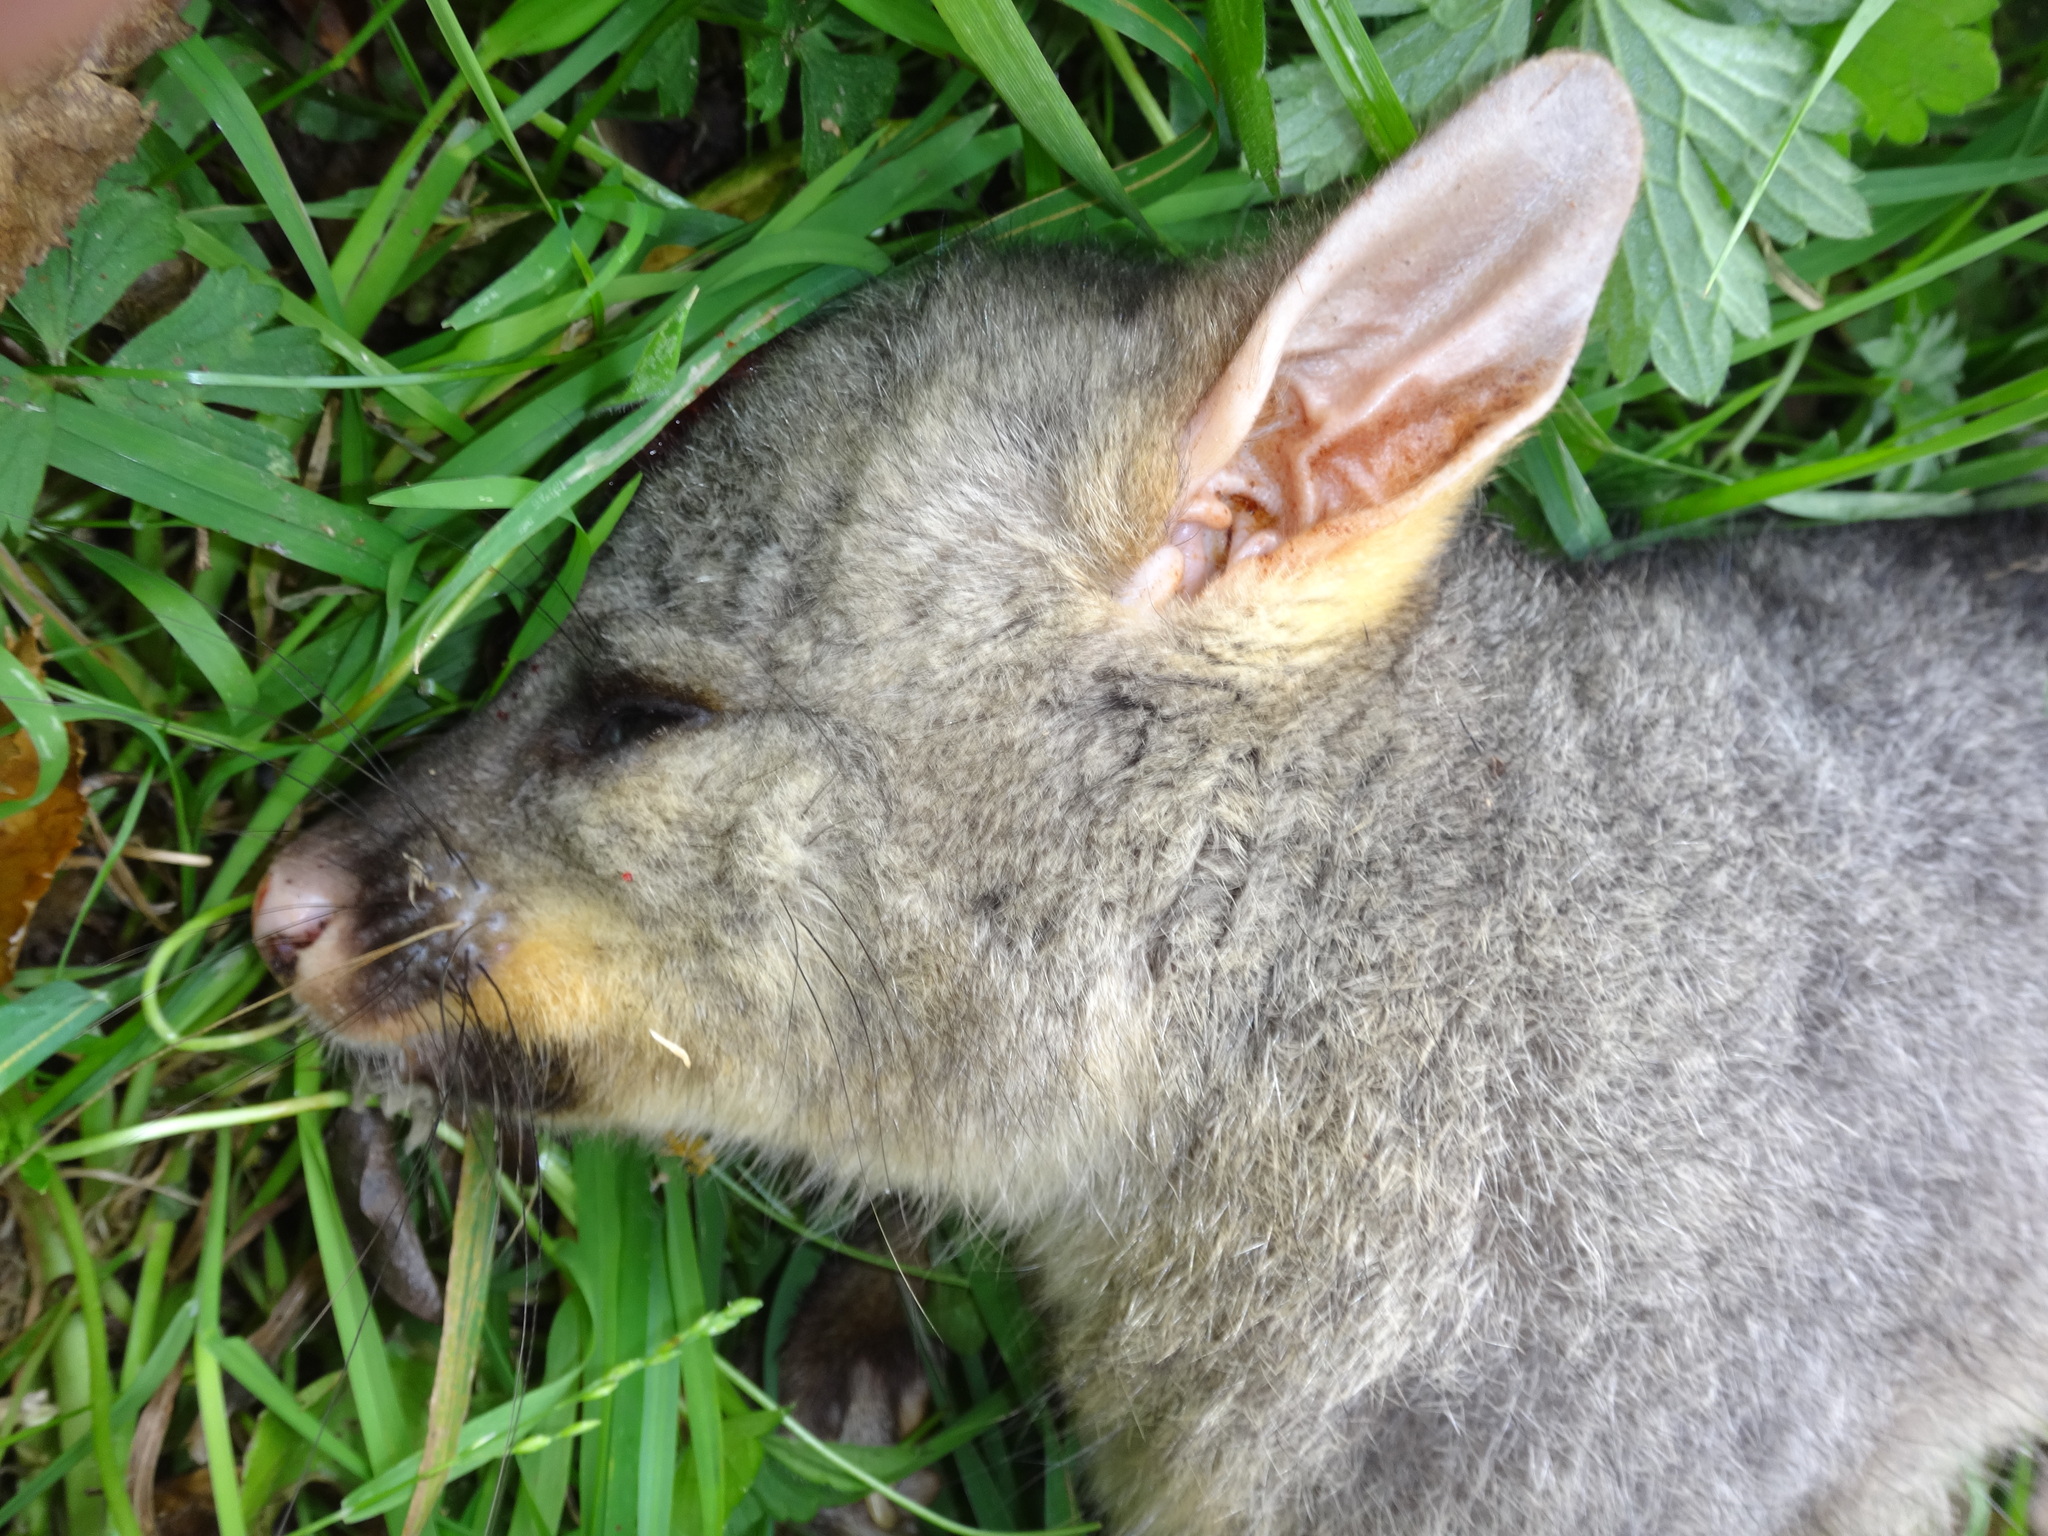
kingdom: Animalia
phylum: Chordata
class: Mammalia
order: Diprotodontia
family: Phalangeridae
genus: Trichosurus
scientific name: Trichosurus vulpecula
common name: Common brushtail
